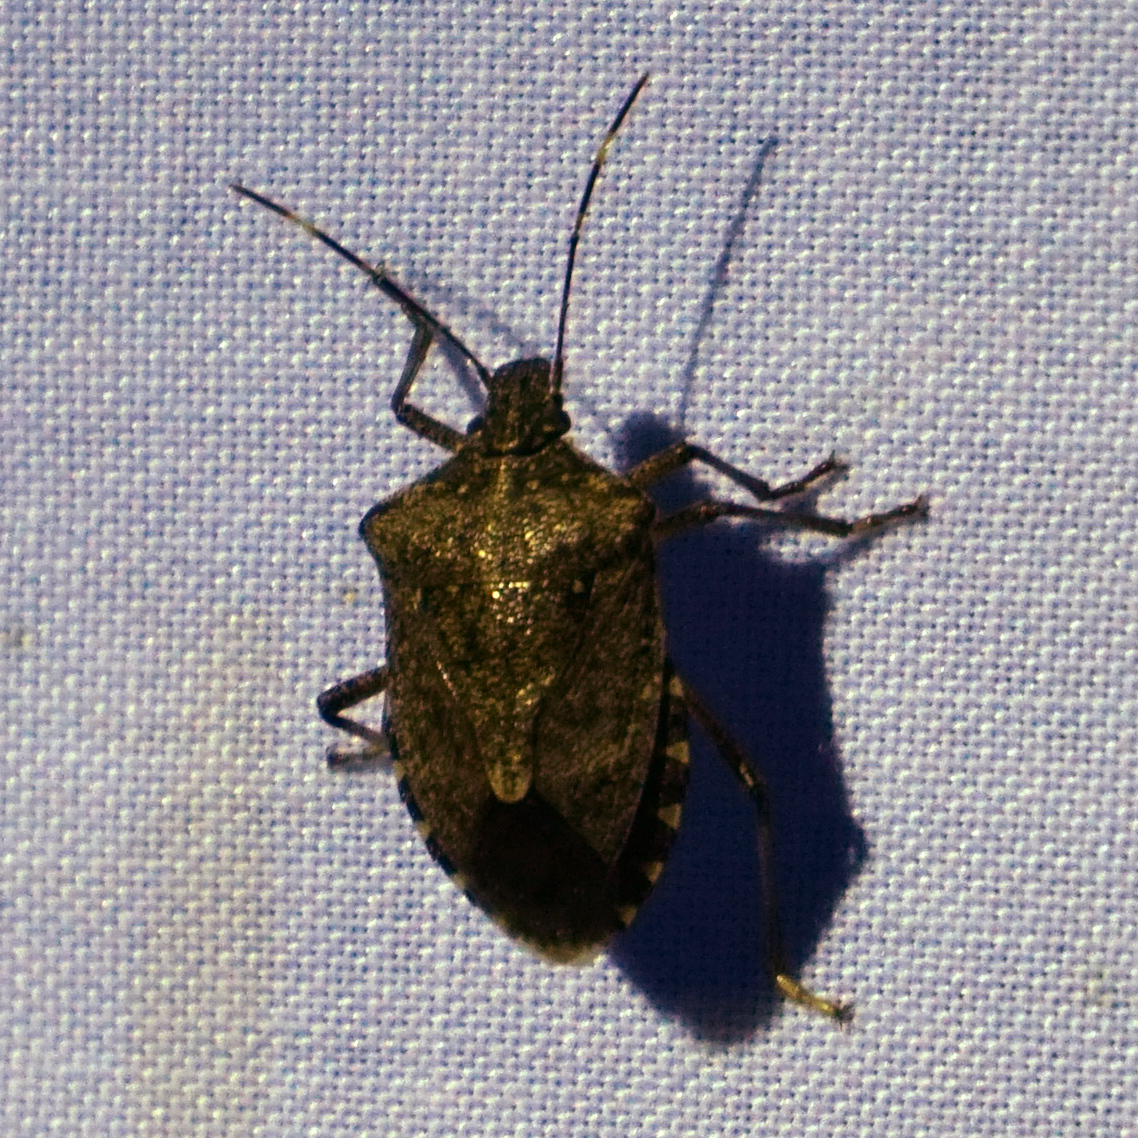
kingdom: Animalia
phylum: Arthropoda
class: Insecta
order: Hemiptera
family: Pentatomidae
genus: Halyomorpha
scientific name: Halyomorpha halys
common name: Brown marmorated stink bug
